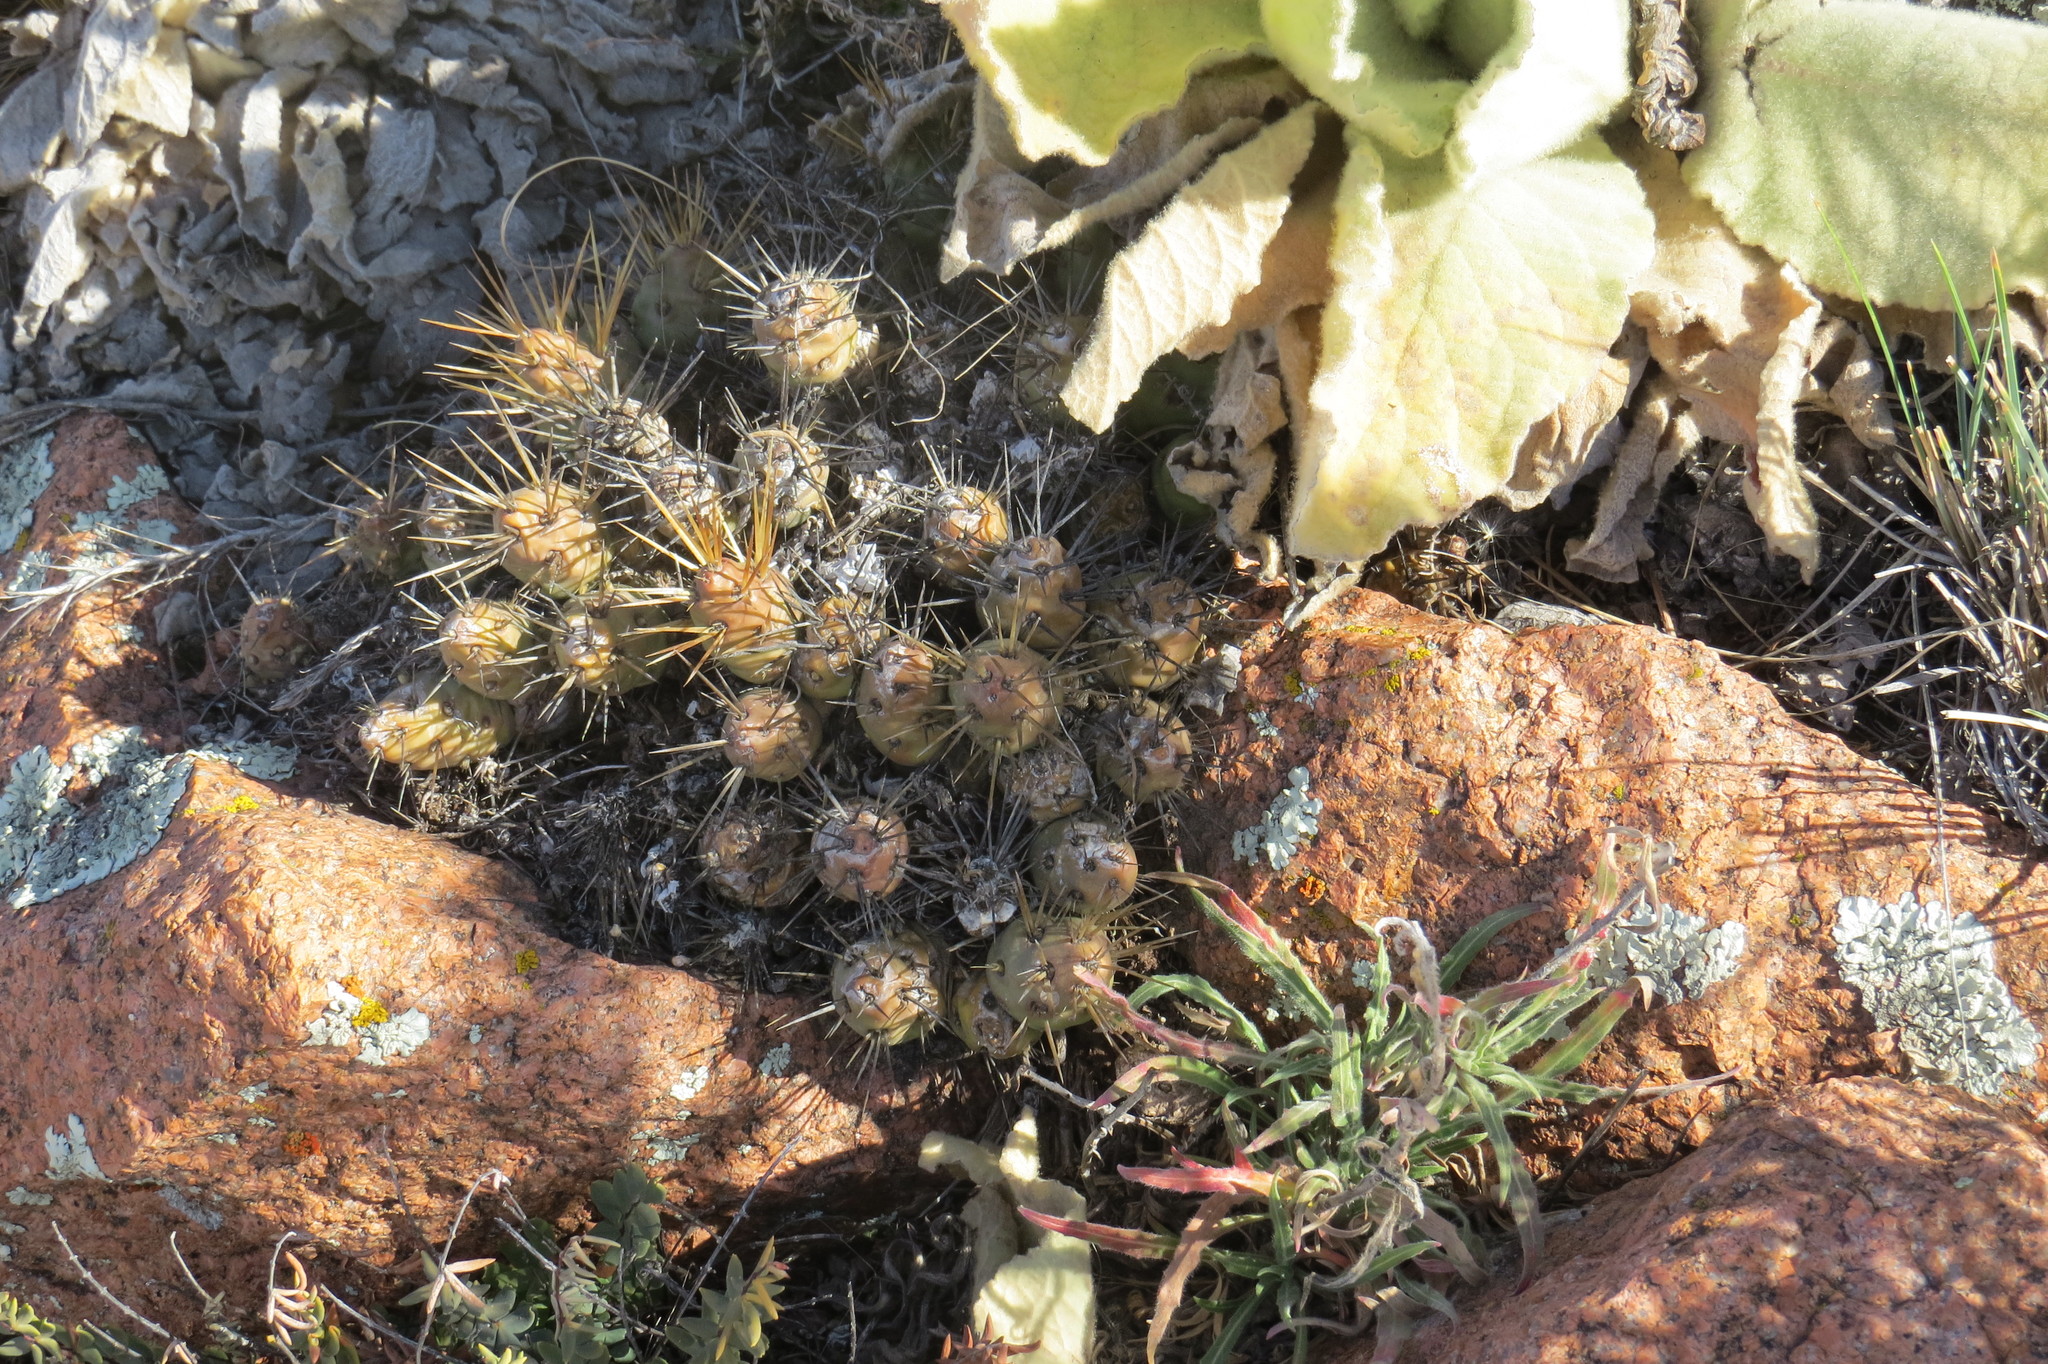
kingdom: Plantae
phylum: Tracheophyta
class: Magnoliopsida
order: Caryophyllales
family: Cactaceae
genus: Maihueniopsis
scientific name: Maihueniopsis ovata
